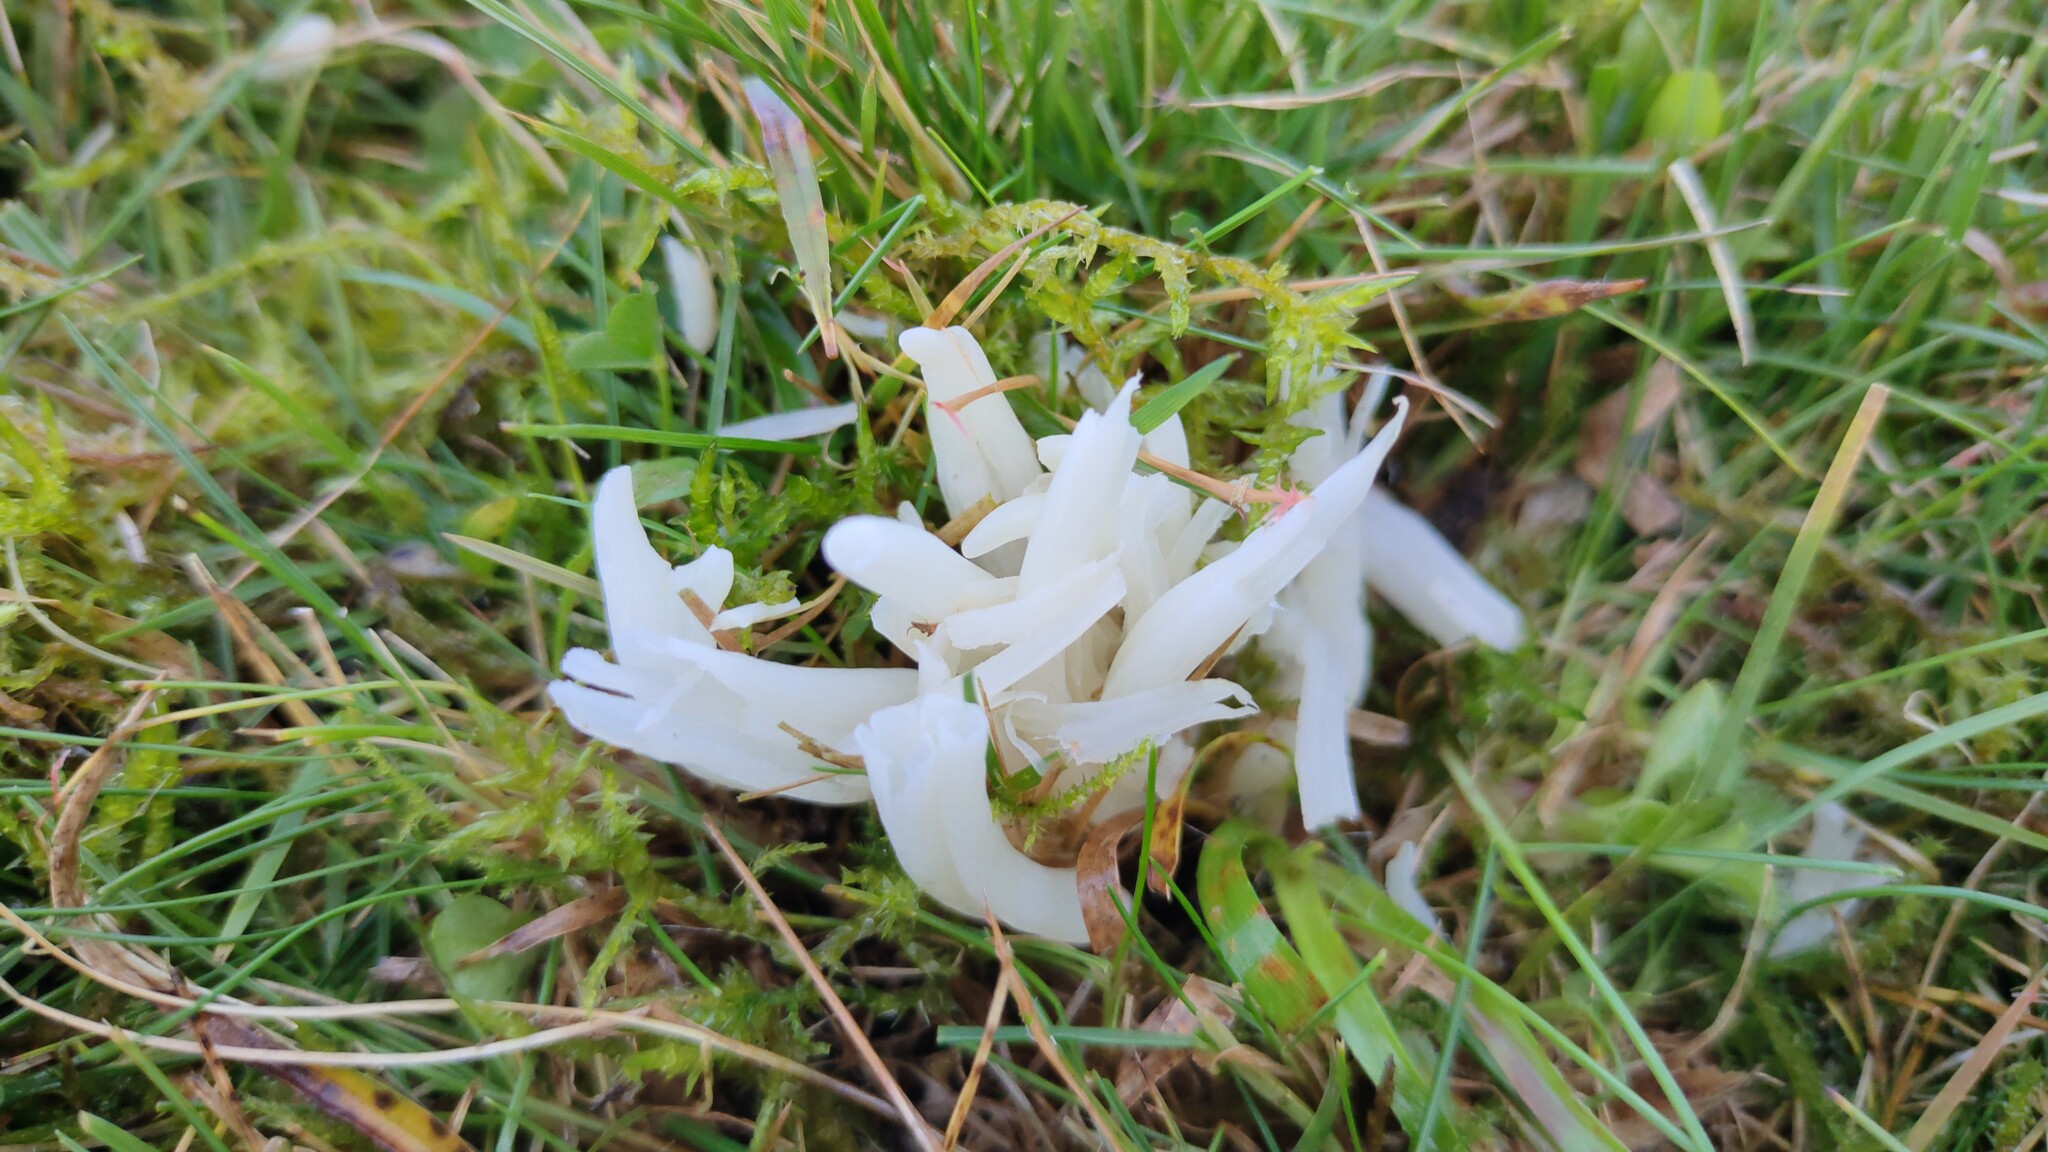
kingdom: Fungi
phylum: Basidiomycota
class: Agaricomycetes
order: Agaricales
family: Clavariaceae
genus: Clavaria
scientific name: Clavaria fragilis
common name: White spindles
